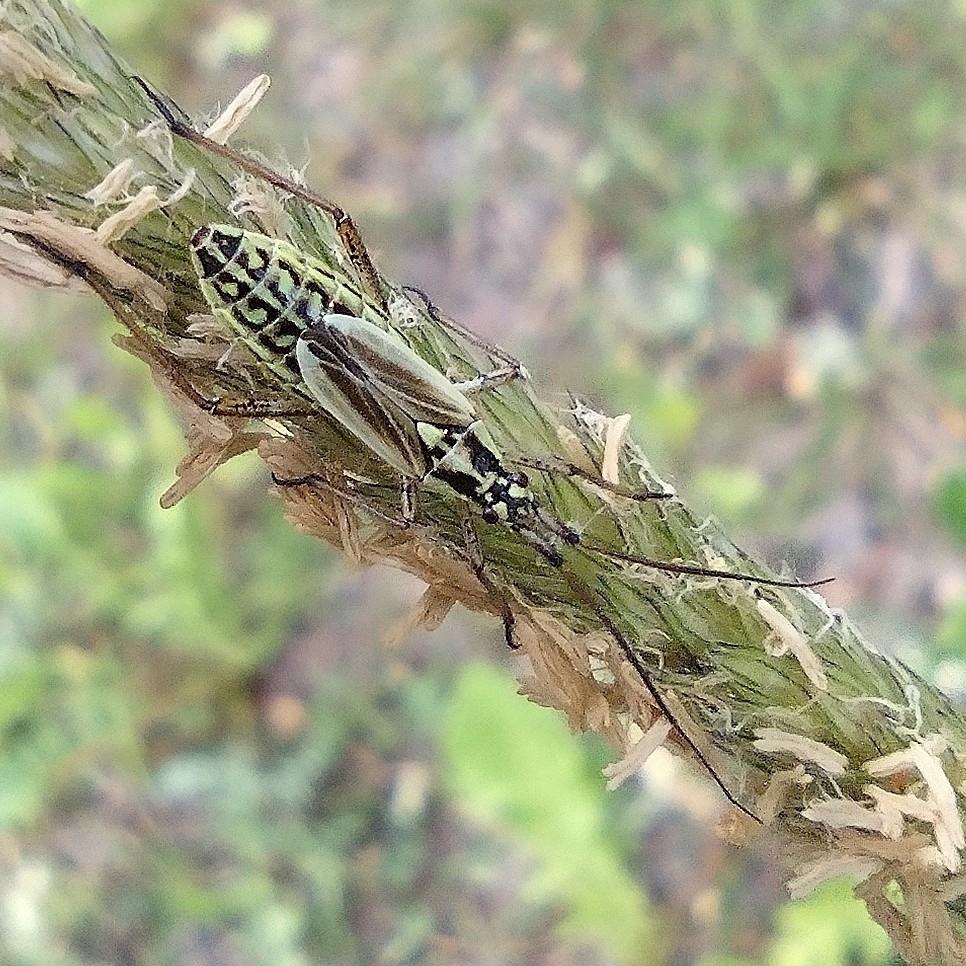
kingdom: Animalia
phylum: Arthropoda
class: Insecta
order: Hemiptera
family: Miridae
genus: Leptopterna
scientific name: Leptopterna dolabrata
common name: Meadow plant bug
